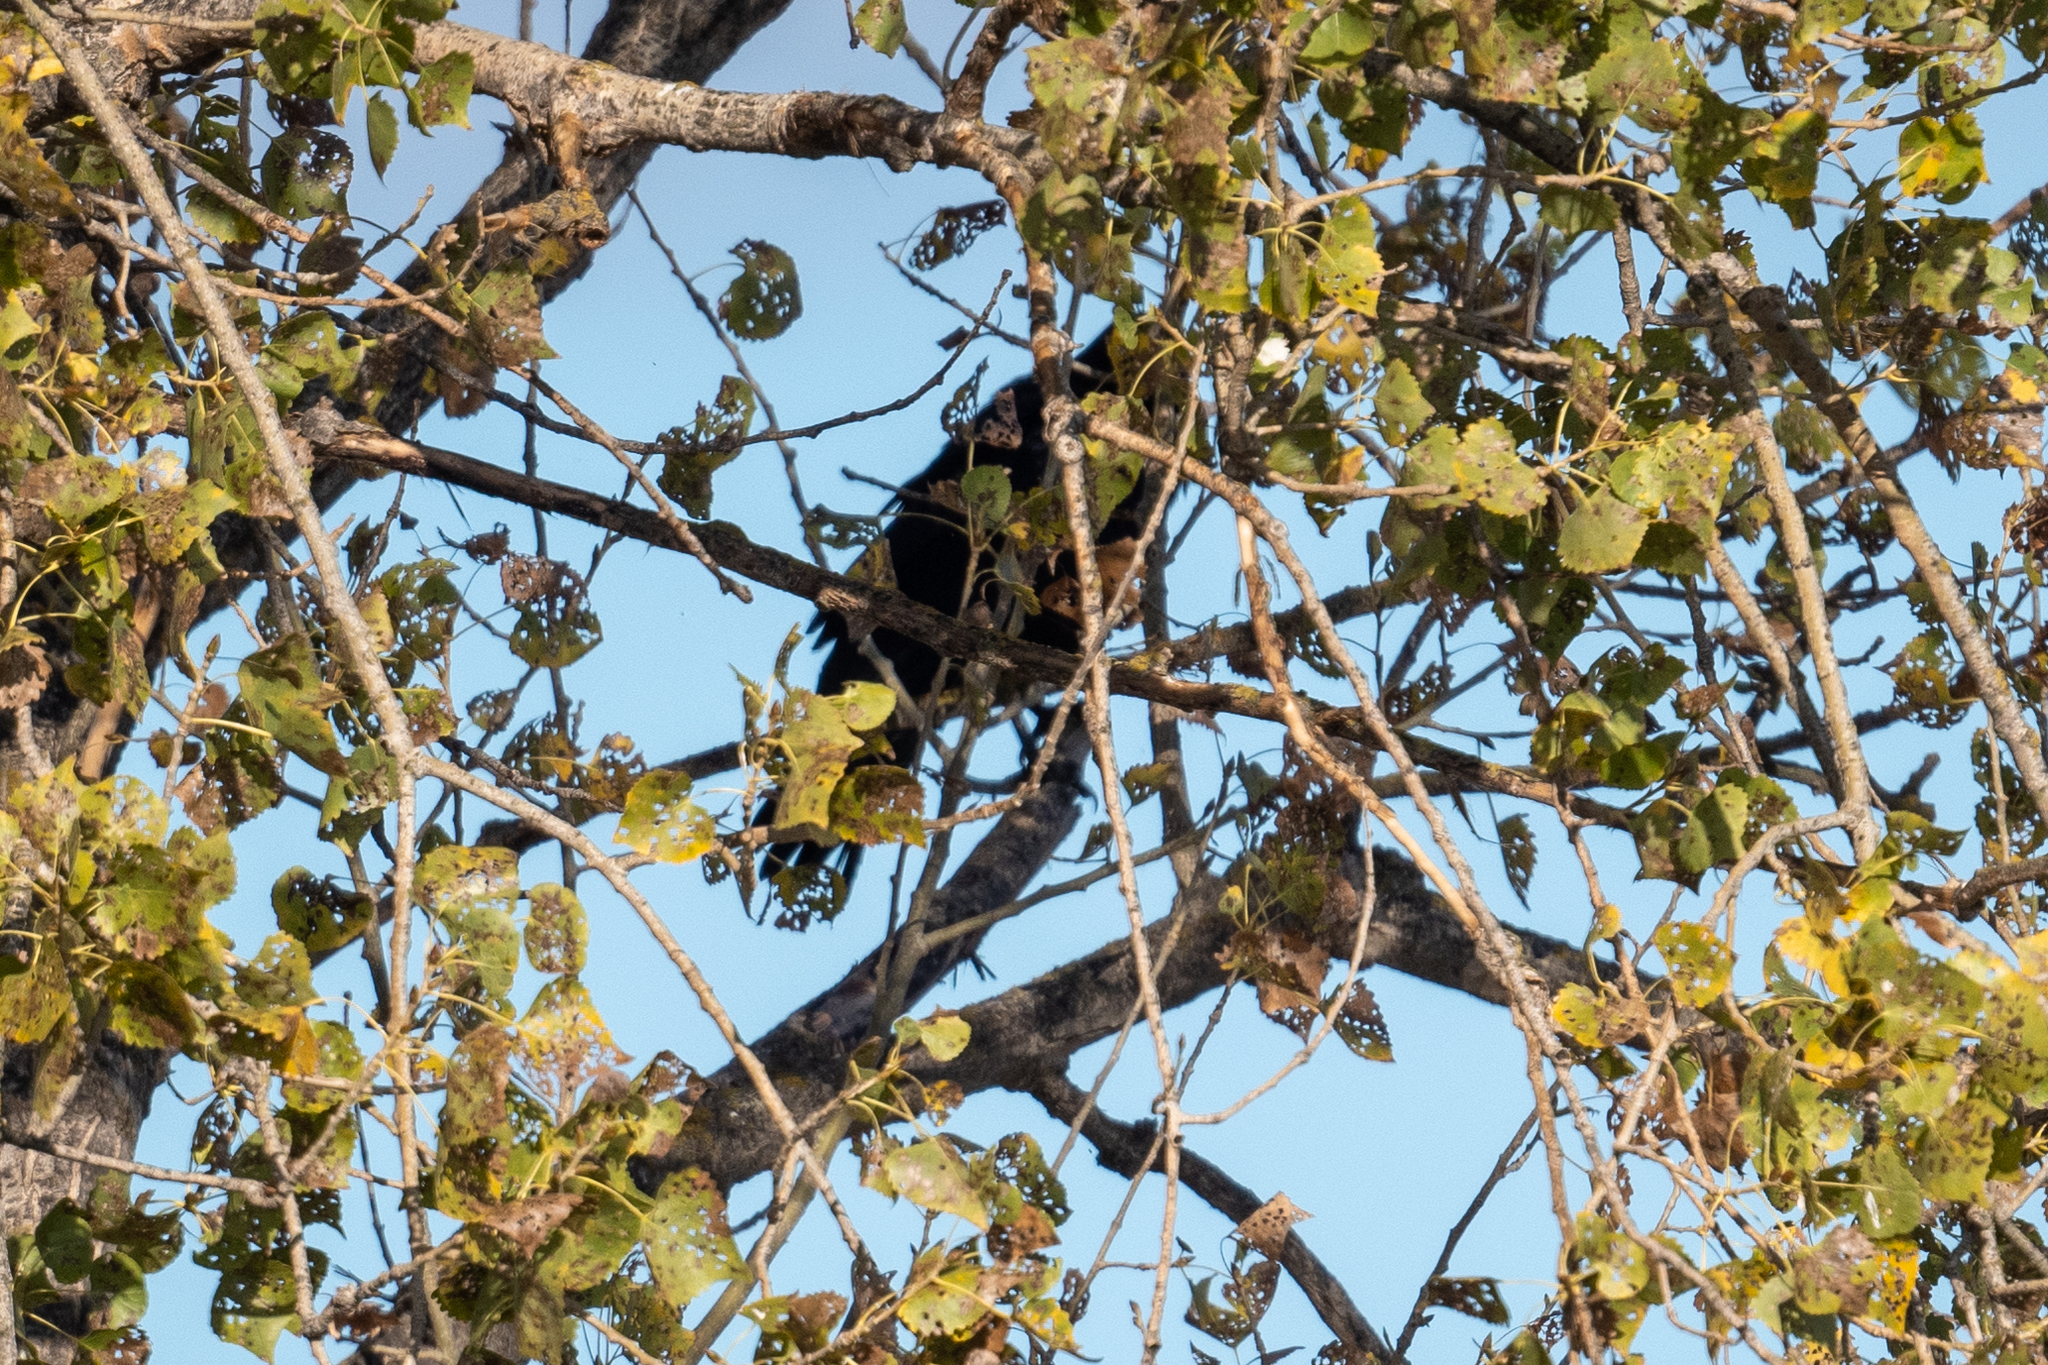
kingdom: Animalia
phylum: Chordata
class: Aves
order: Passeriformes
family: Corvidae
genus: Corvus
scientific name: Corvus corax
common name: Common raven
